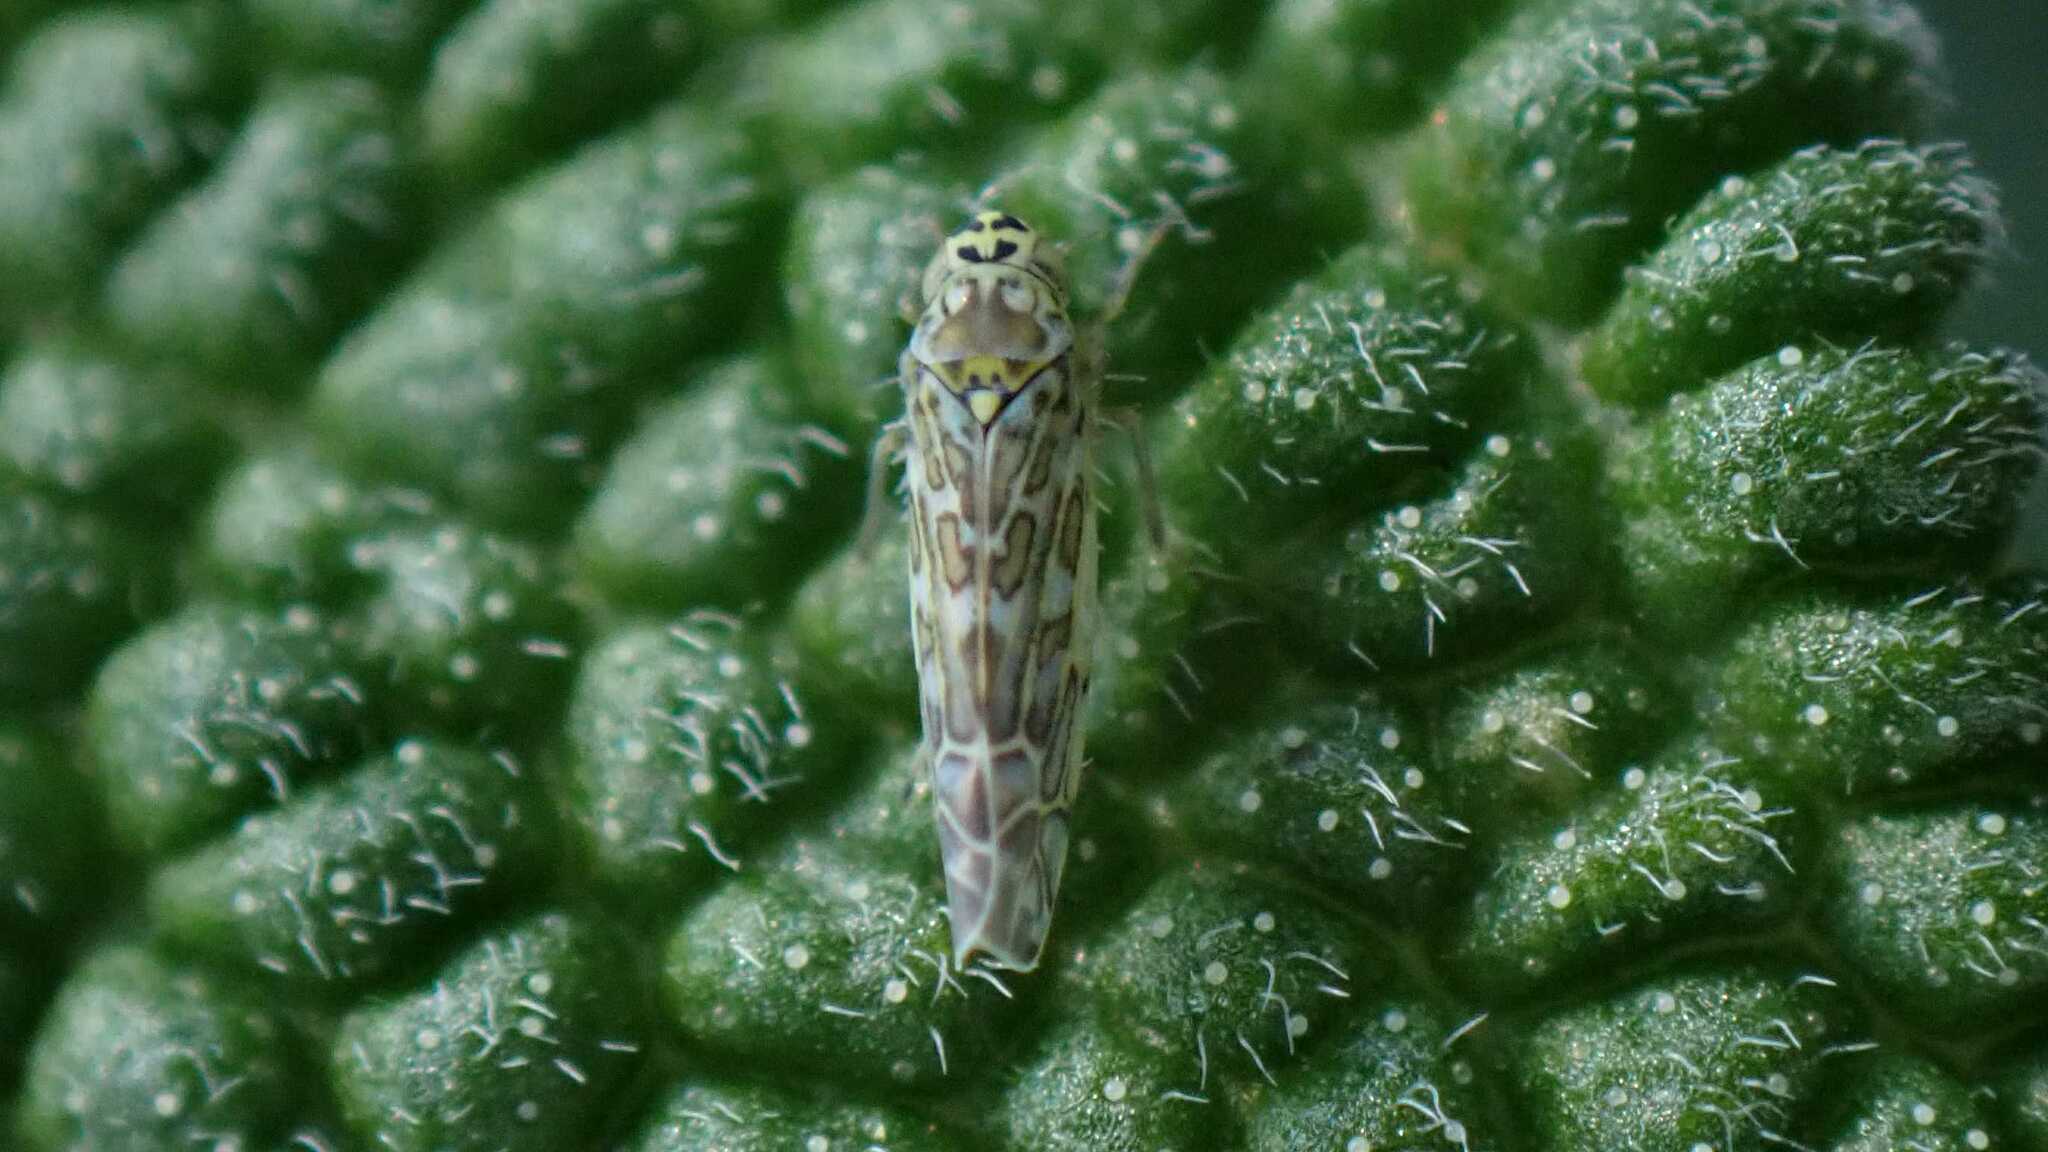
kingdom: Animalia
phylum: Arthropoda
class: Insecta
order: Hemiptera
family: Cicadellidae
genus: Eupteryx
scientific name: Eupteryx decemnotata
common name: Ligurian leafhopper
